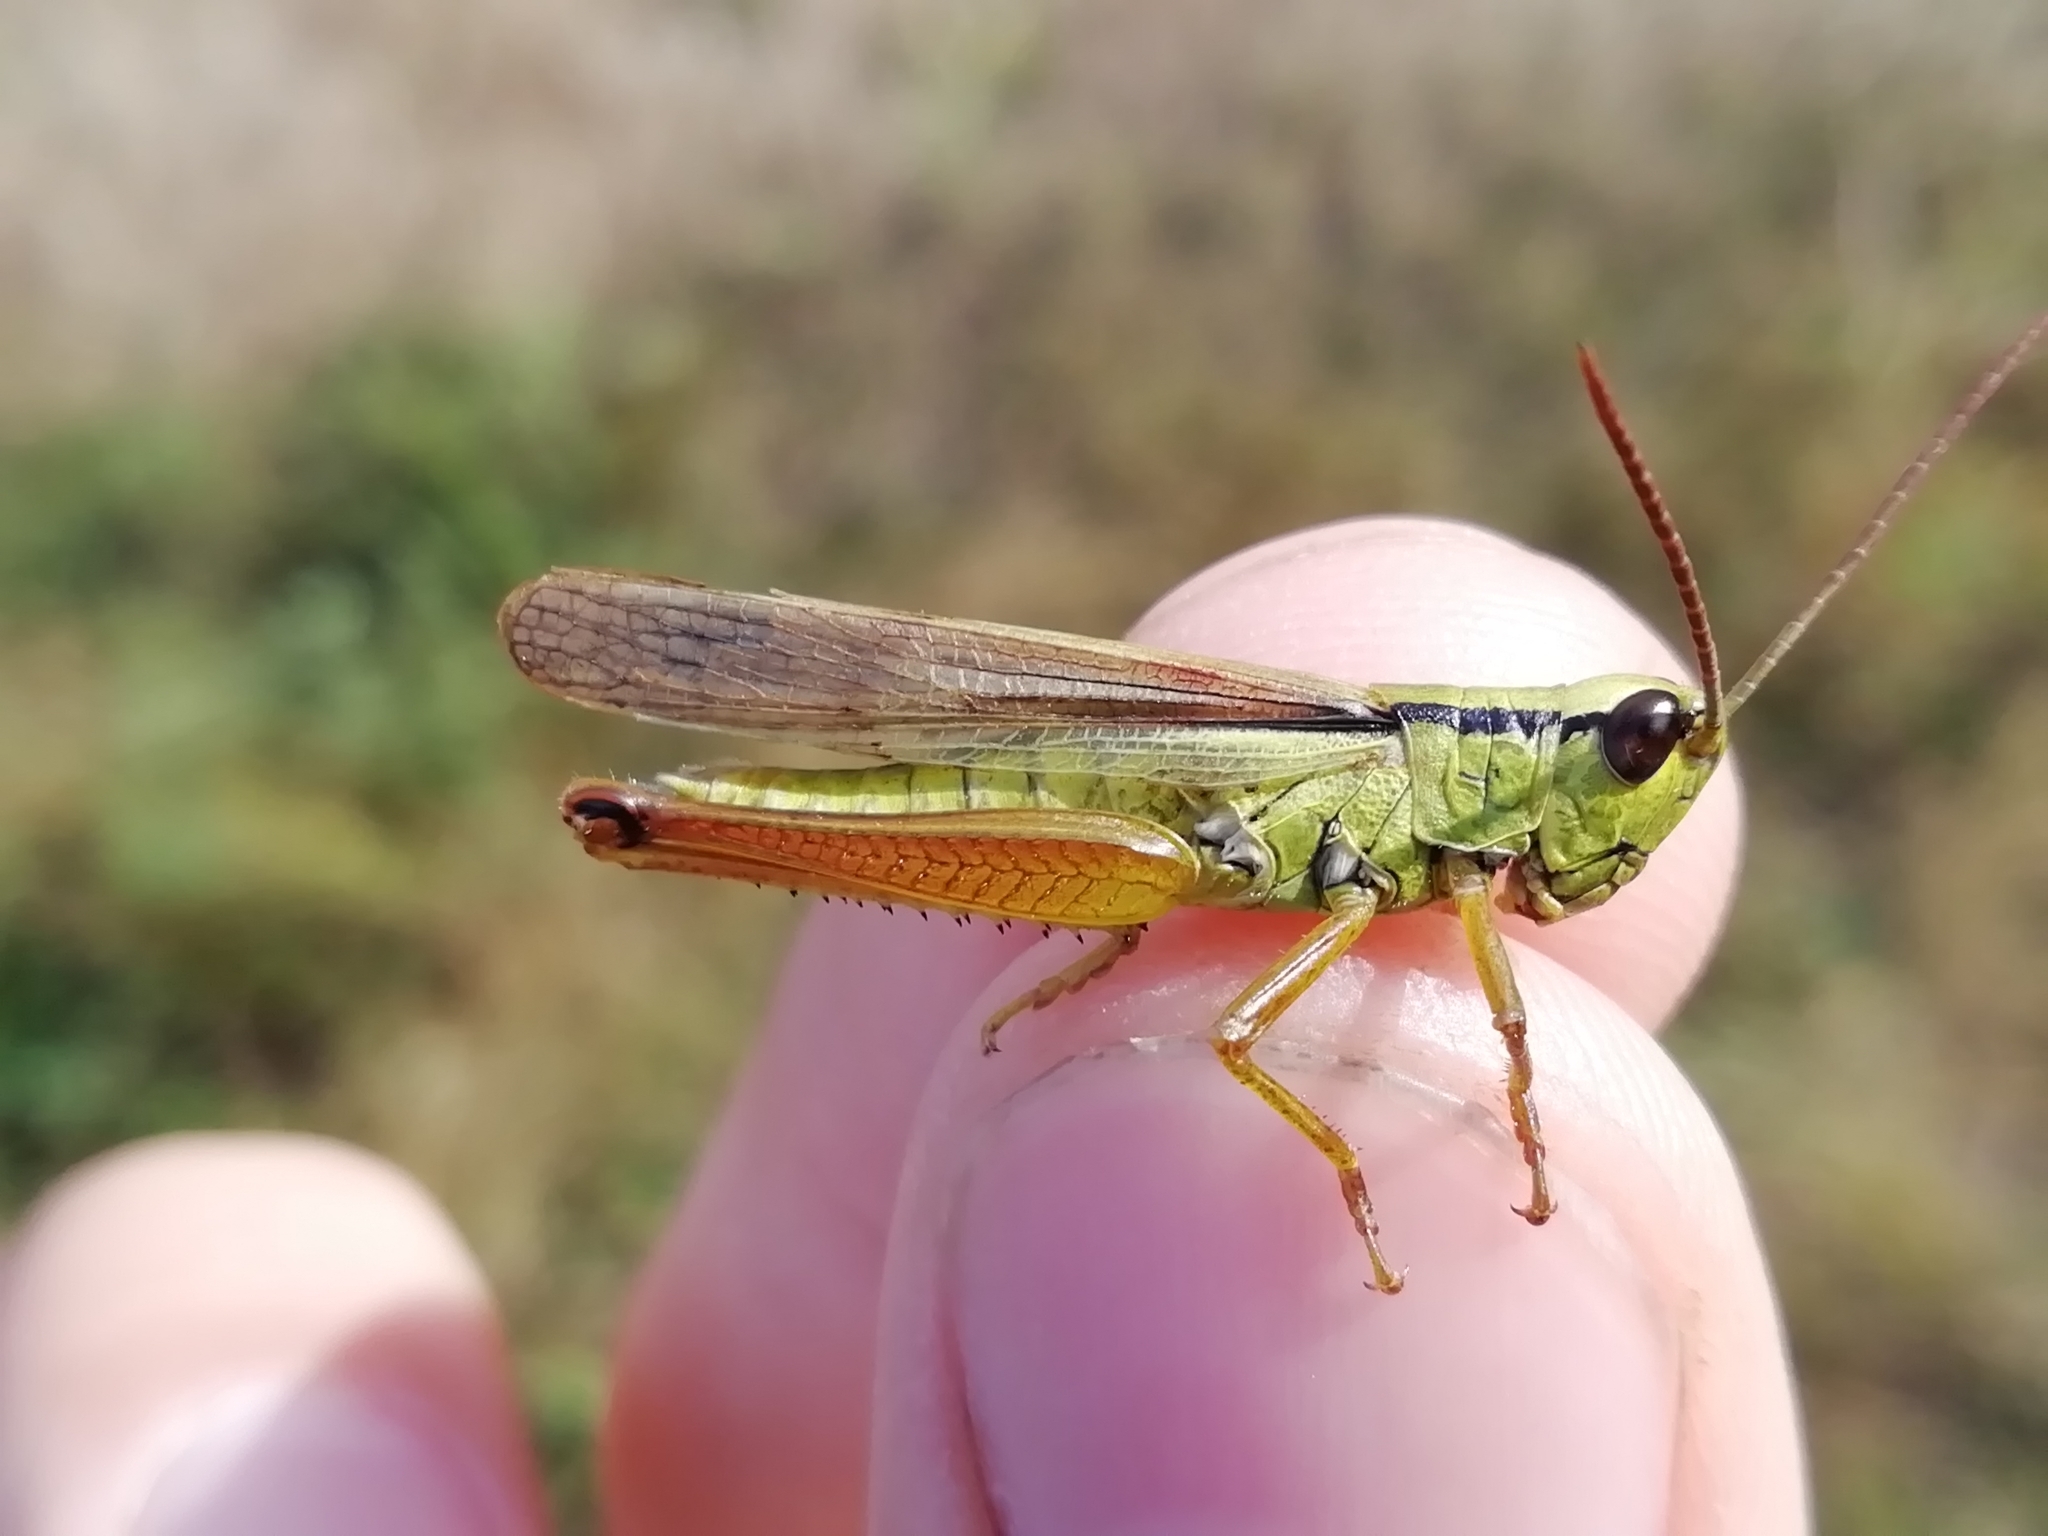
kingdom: Animalia
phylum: Arthropoda
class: Insecta
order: Orthoptera
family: Acrididae
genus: Mecostethus
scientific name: Mecostethus parapleurus
